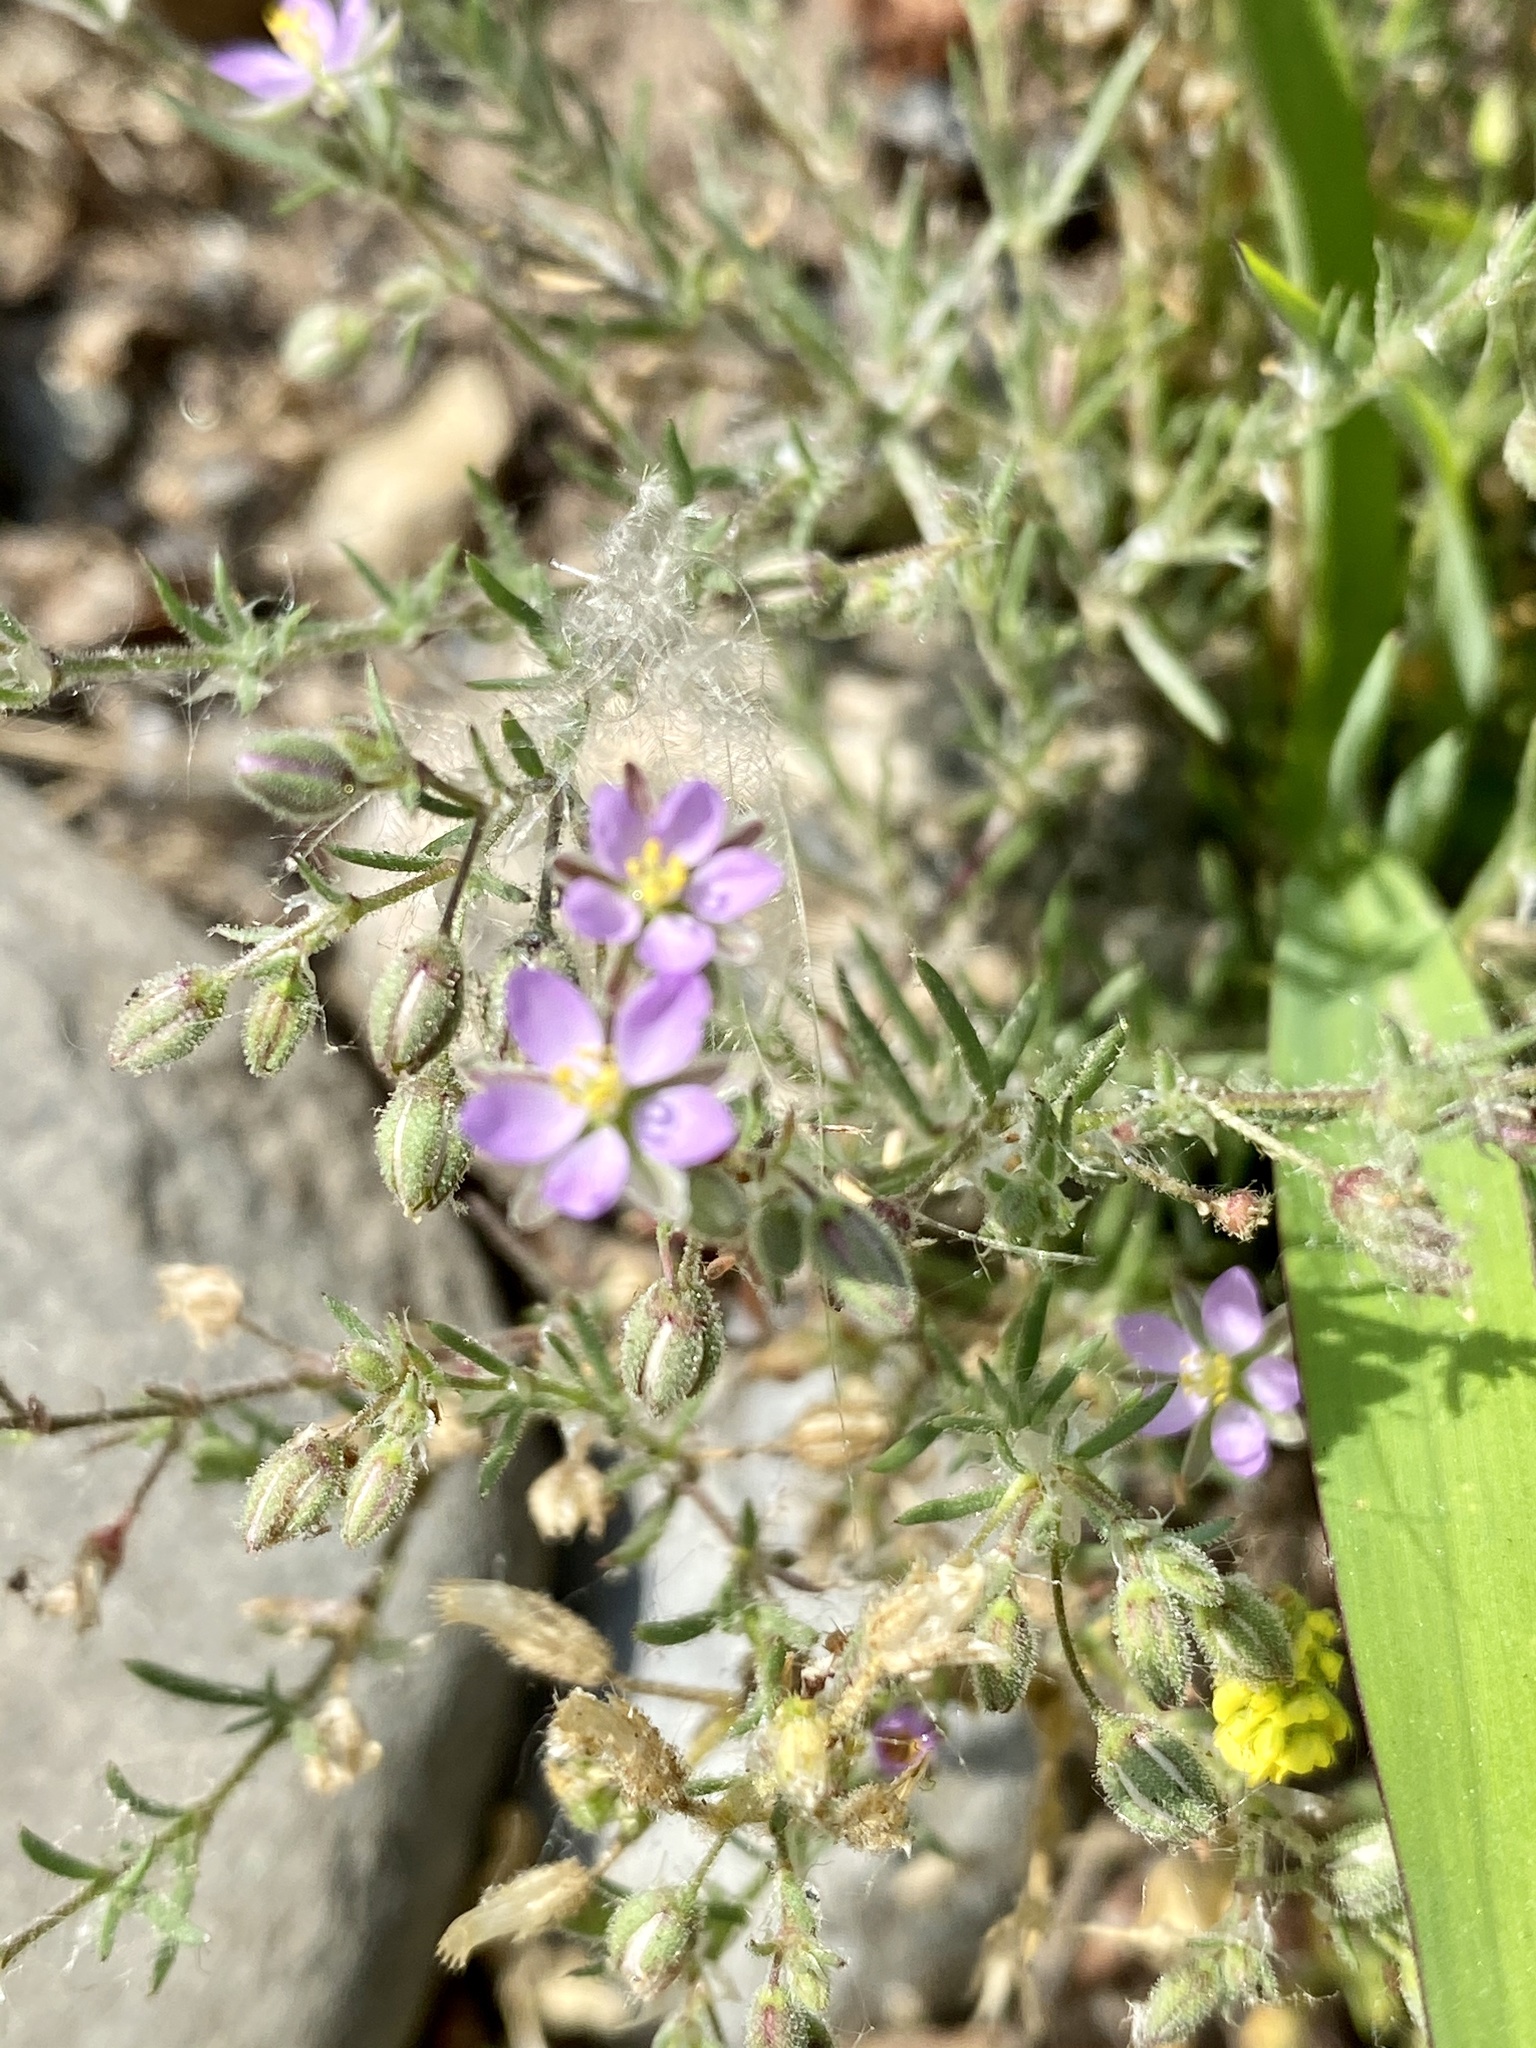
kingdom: Plantae
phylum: Tracheophyta
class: Magnoliopsida
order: Caryophyllales
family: Caryophyllaceae
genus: Spergularia
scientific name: Spergularia rubra
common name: Red sand-spurrey
